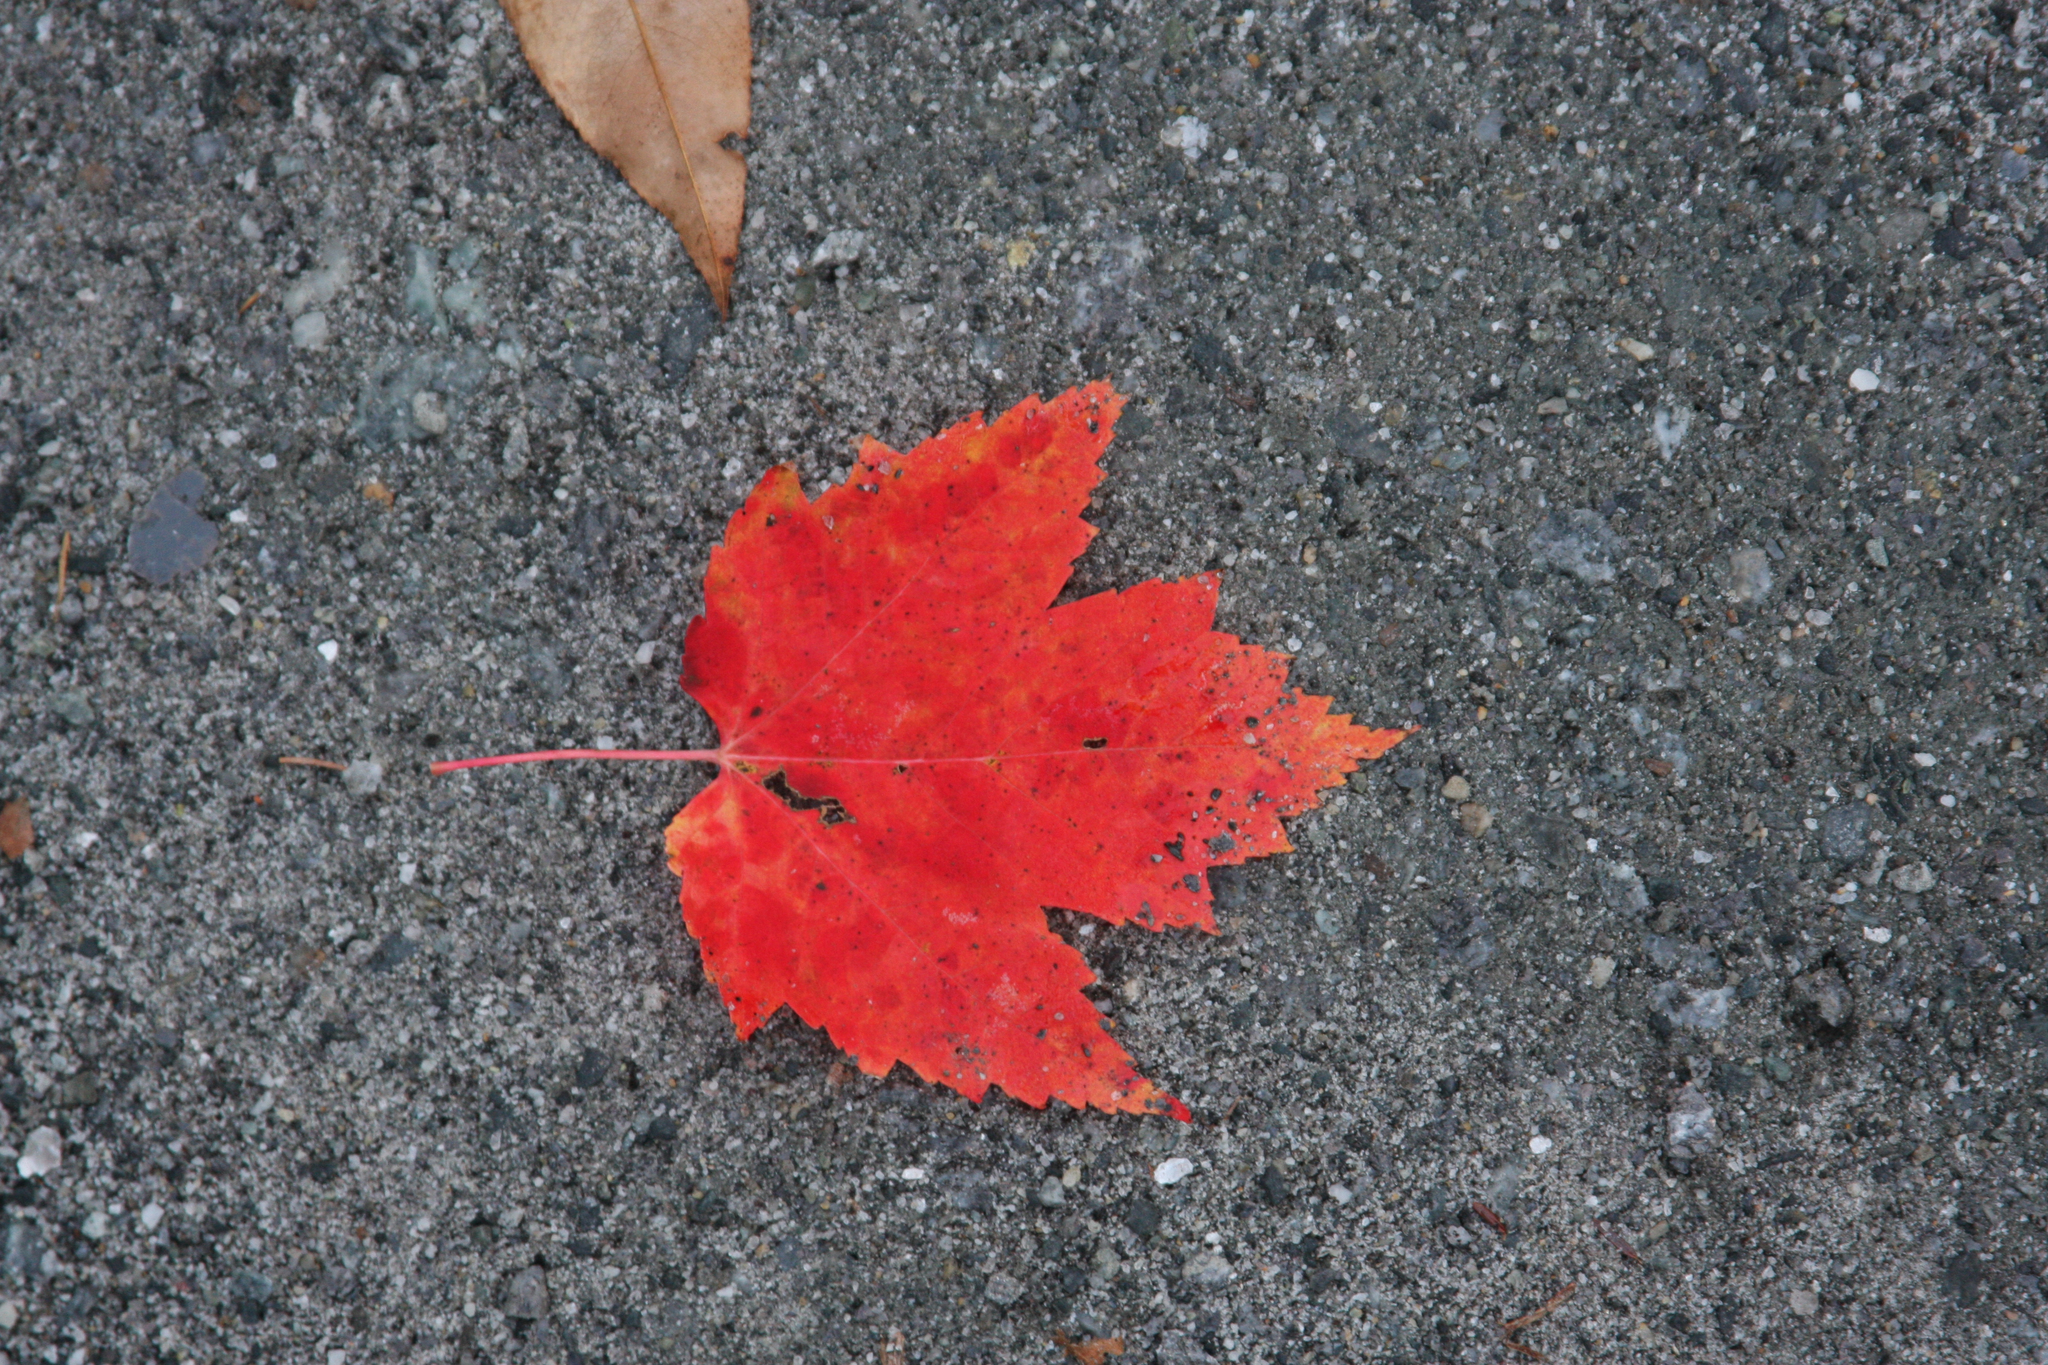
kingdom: Plantae
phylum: Tracheophyta
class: Magnoliopsida
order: Sapindales
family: Sapindaceae
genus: Acer
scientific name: Acer rubrum
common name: Red maple
